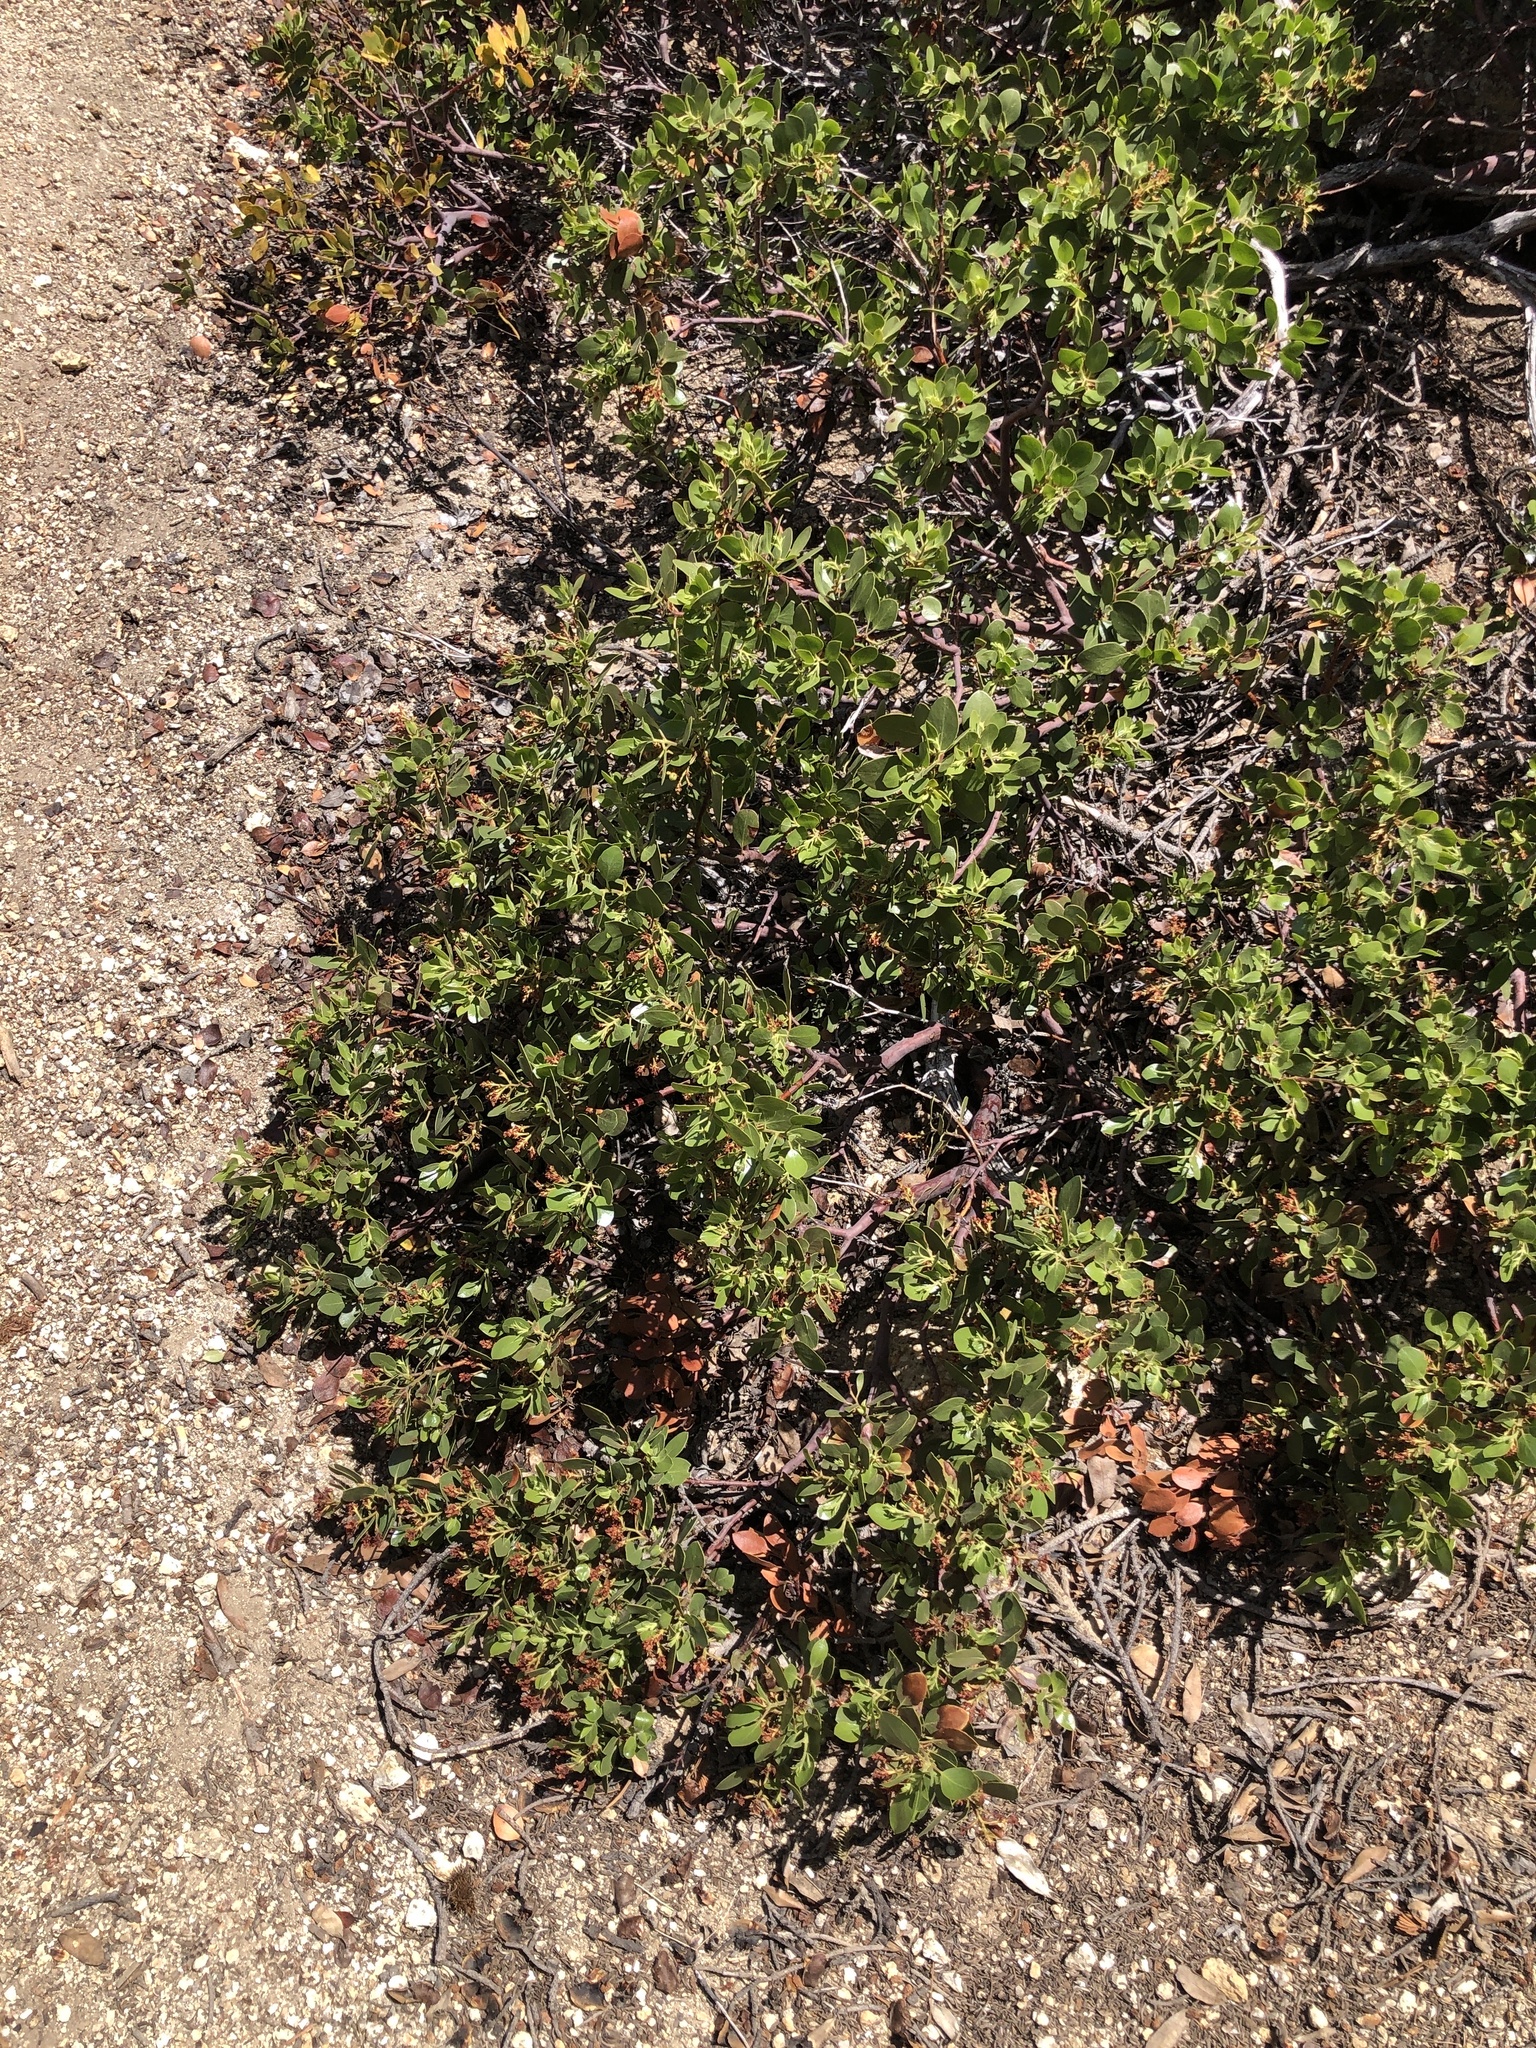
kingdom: Plantae
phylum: Tracheophyta
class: Magnoliopsida
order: Ericales
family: Ericaceae
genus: Arctostaphylos
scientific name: Arctostaphylos nevadensis
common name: Pinemat manzanita
